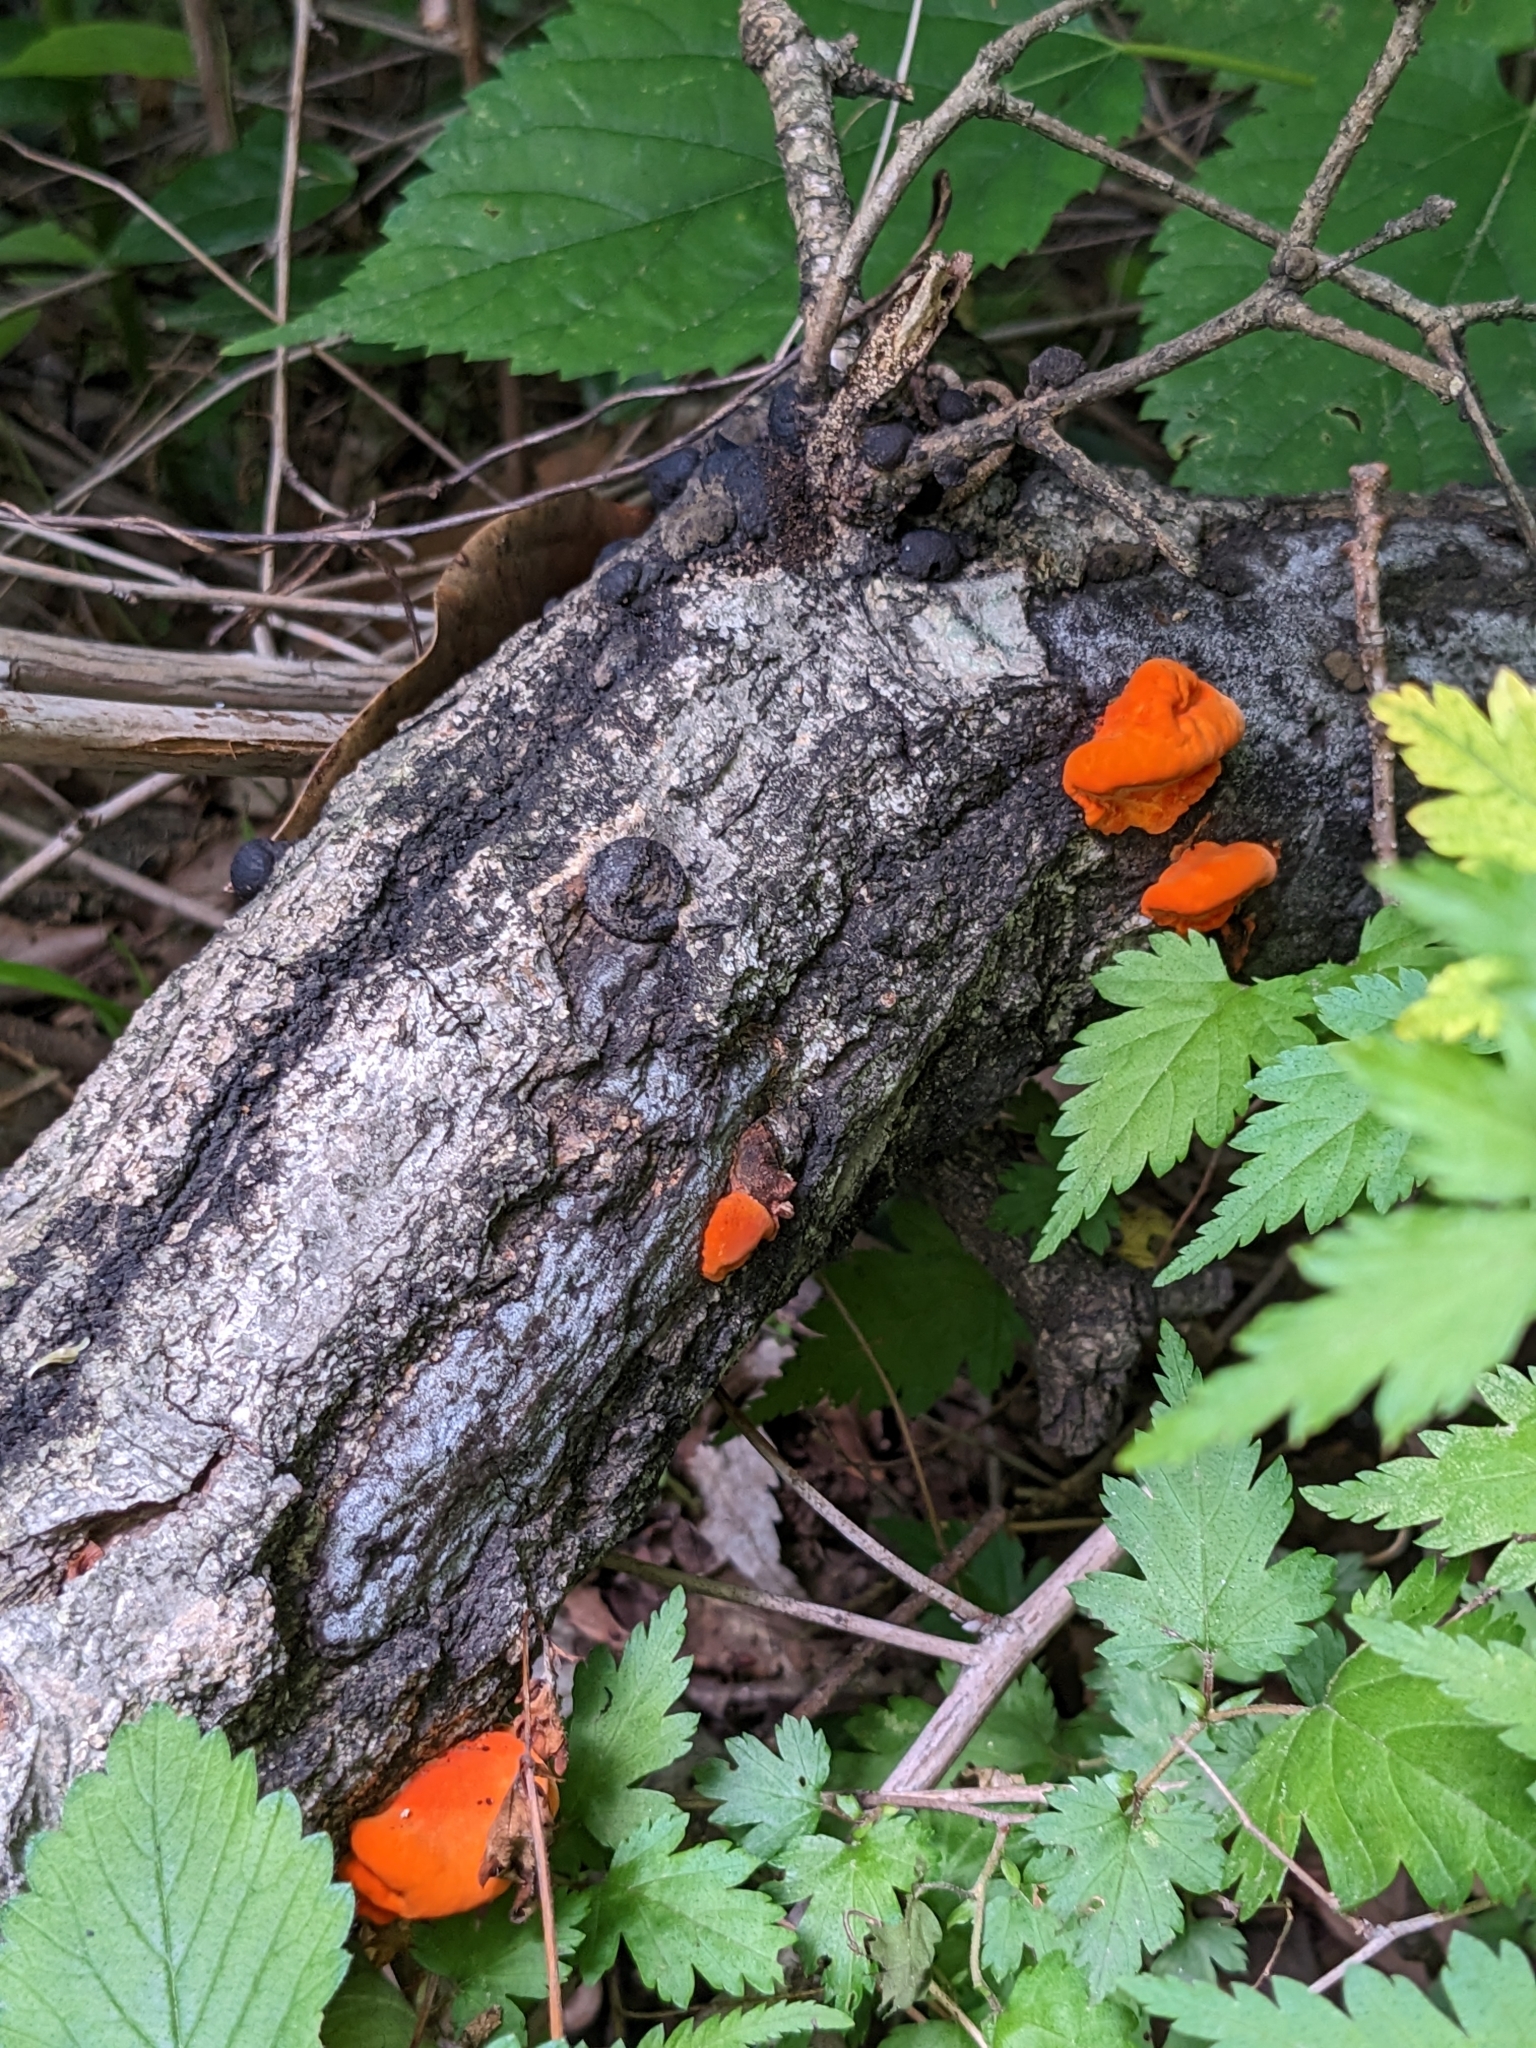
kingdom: Fungi
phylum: Basidiomycota
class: Agaricomycetes
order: Polyporales
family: Polyporaceae
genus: Trametes
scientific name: Trametes coccinea
